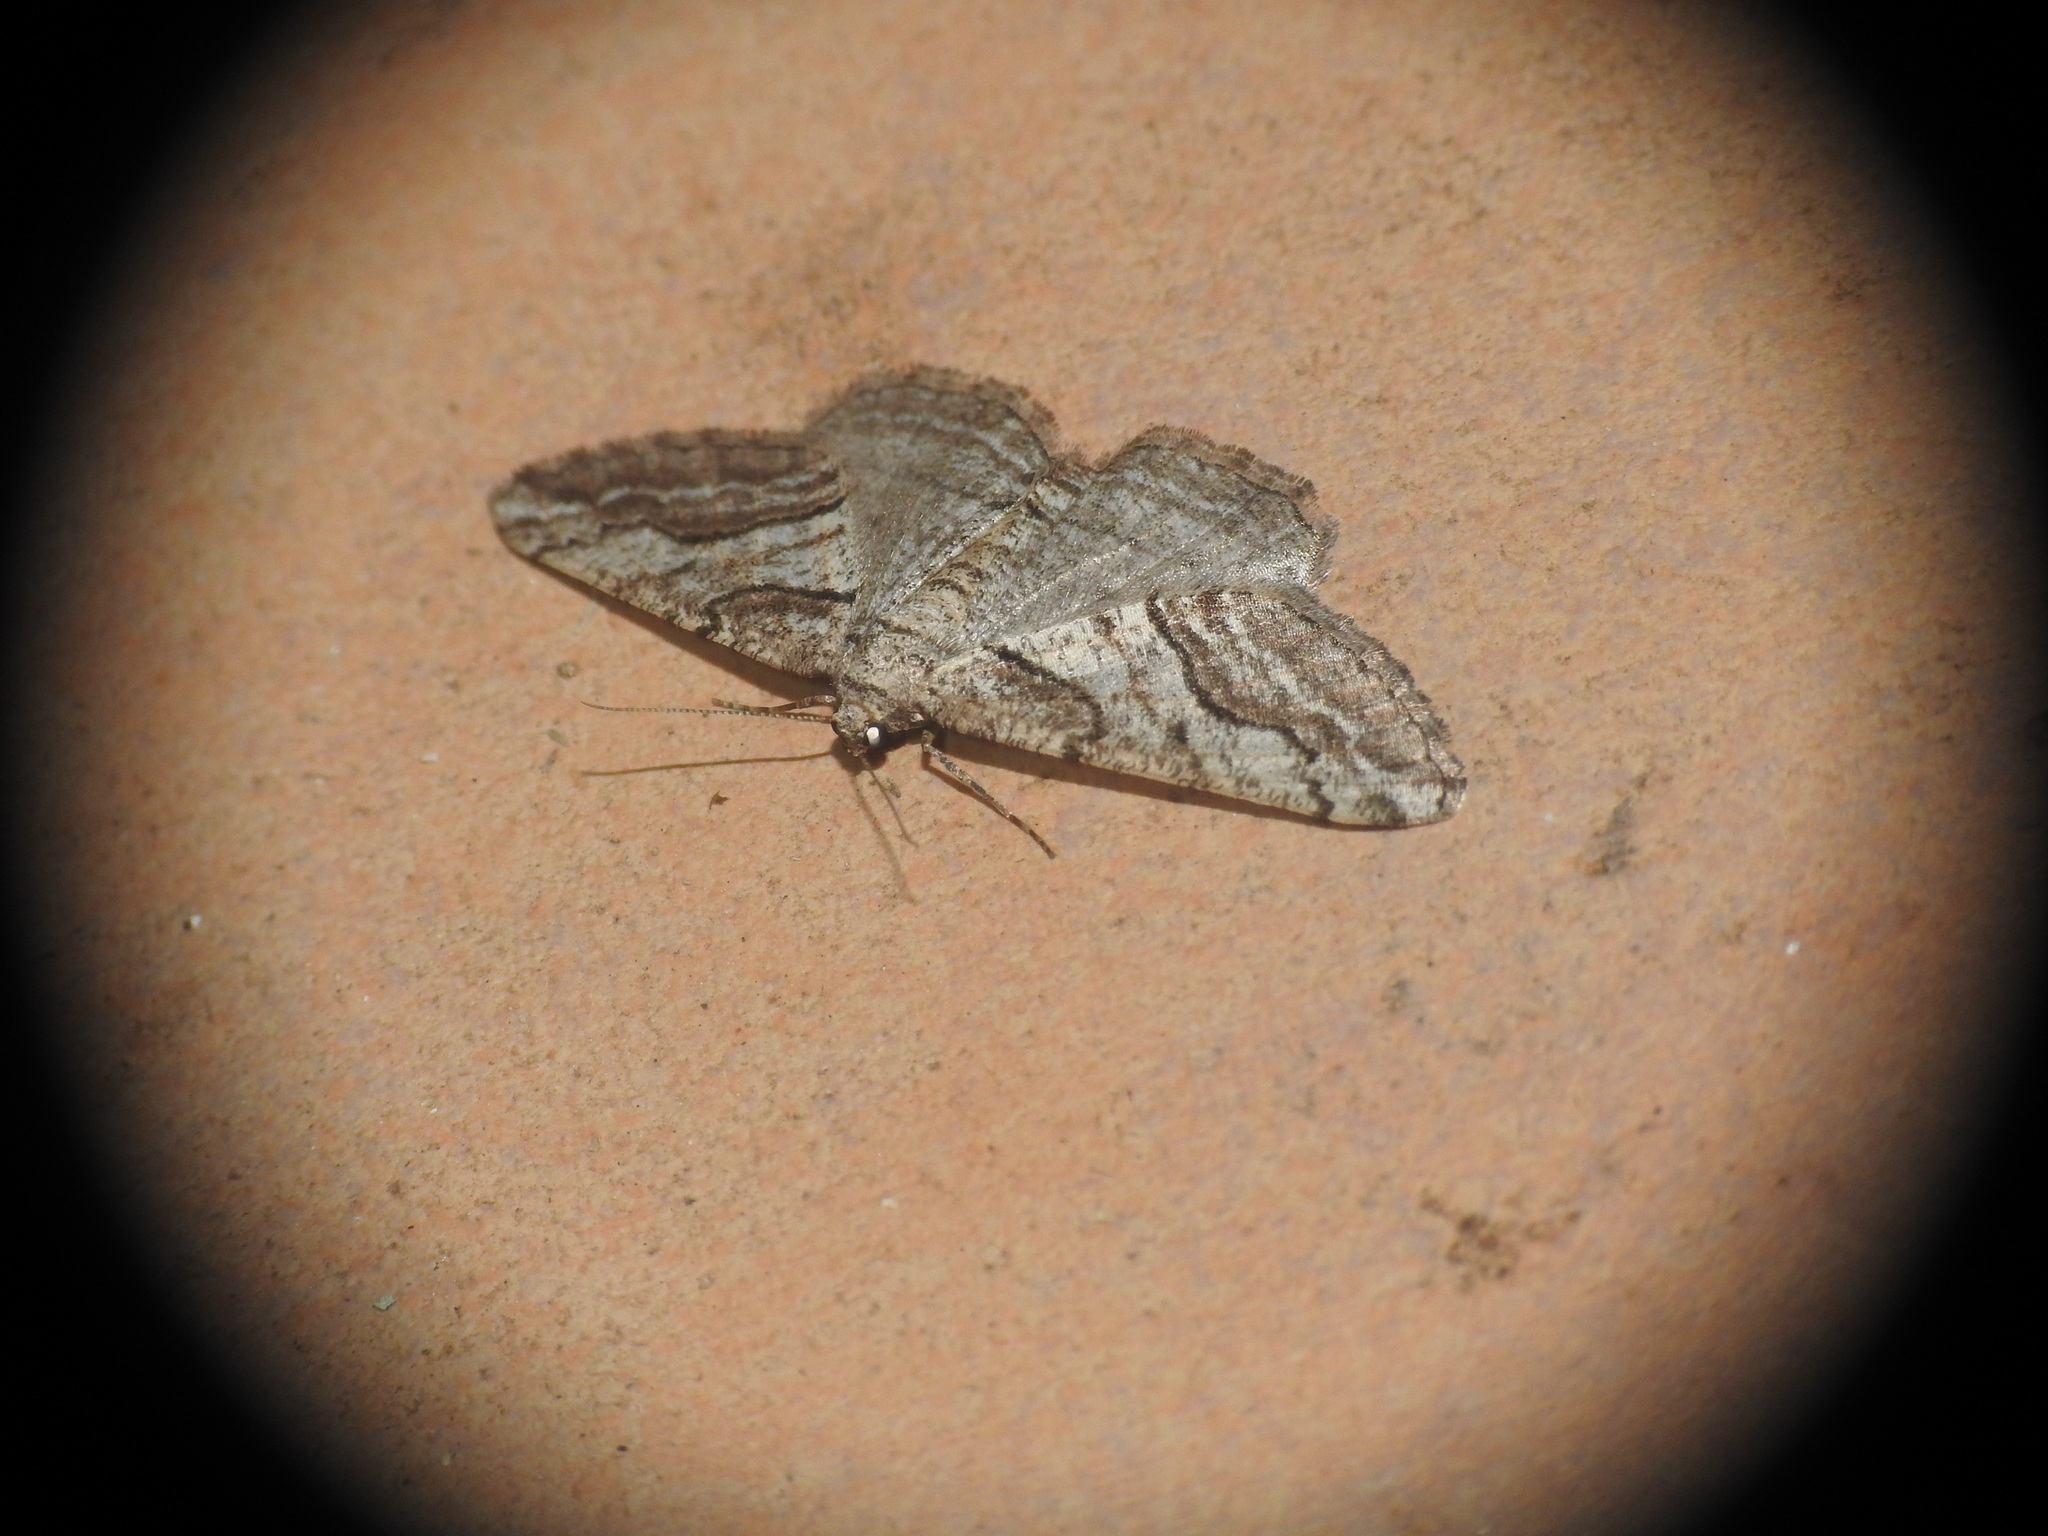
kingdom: Animalia
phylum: Arthropoda
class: Insecta
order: Lepidoptera
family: Geometridae
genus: Calamodes
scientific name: Calamodes occitanaria
